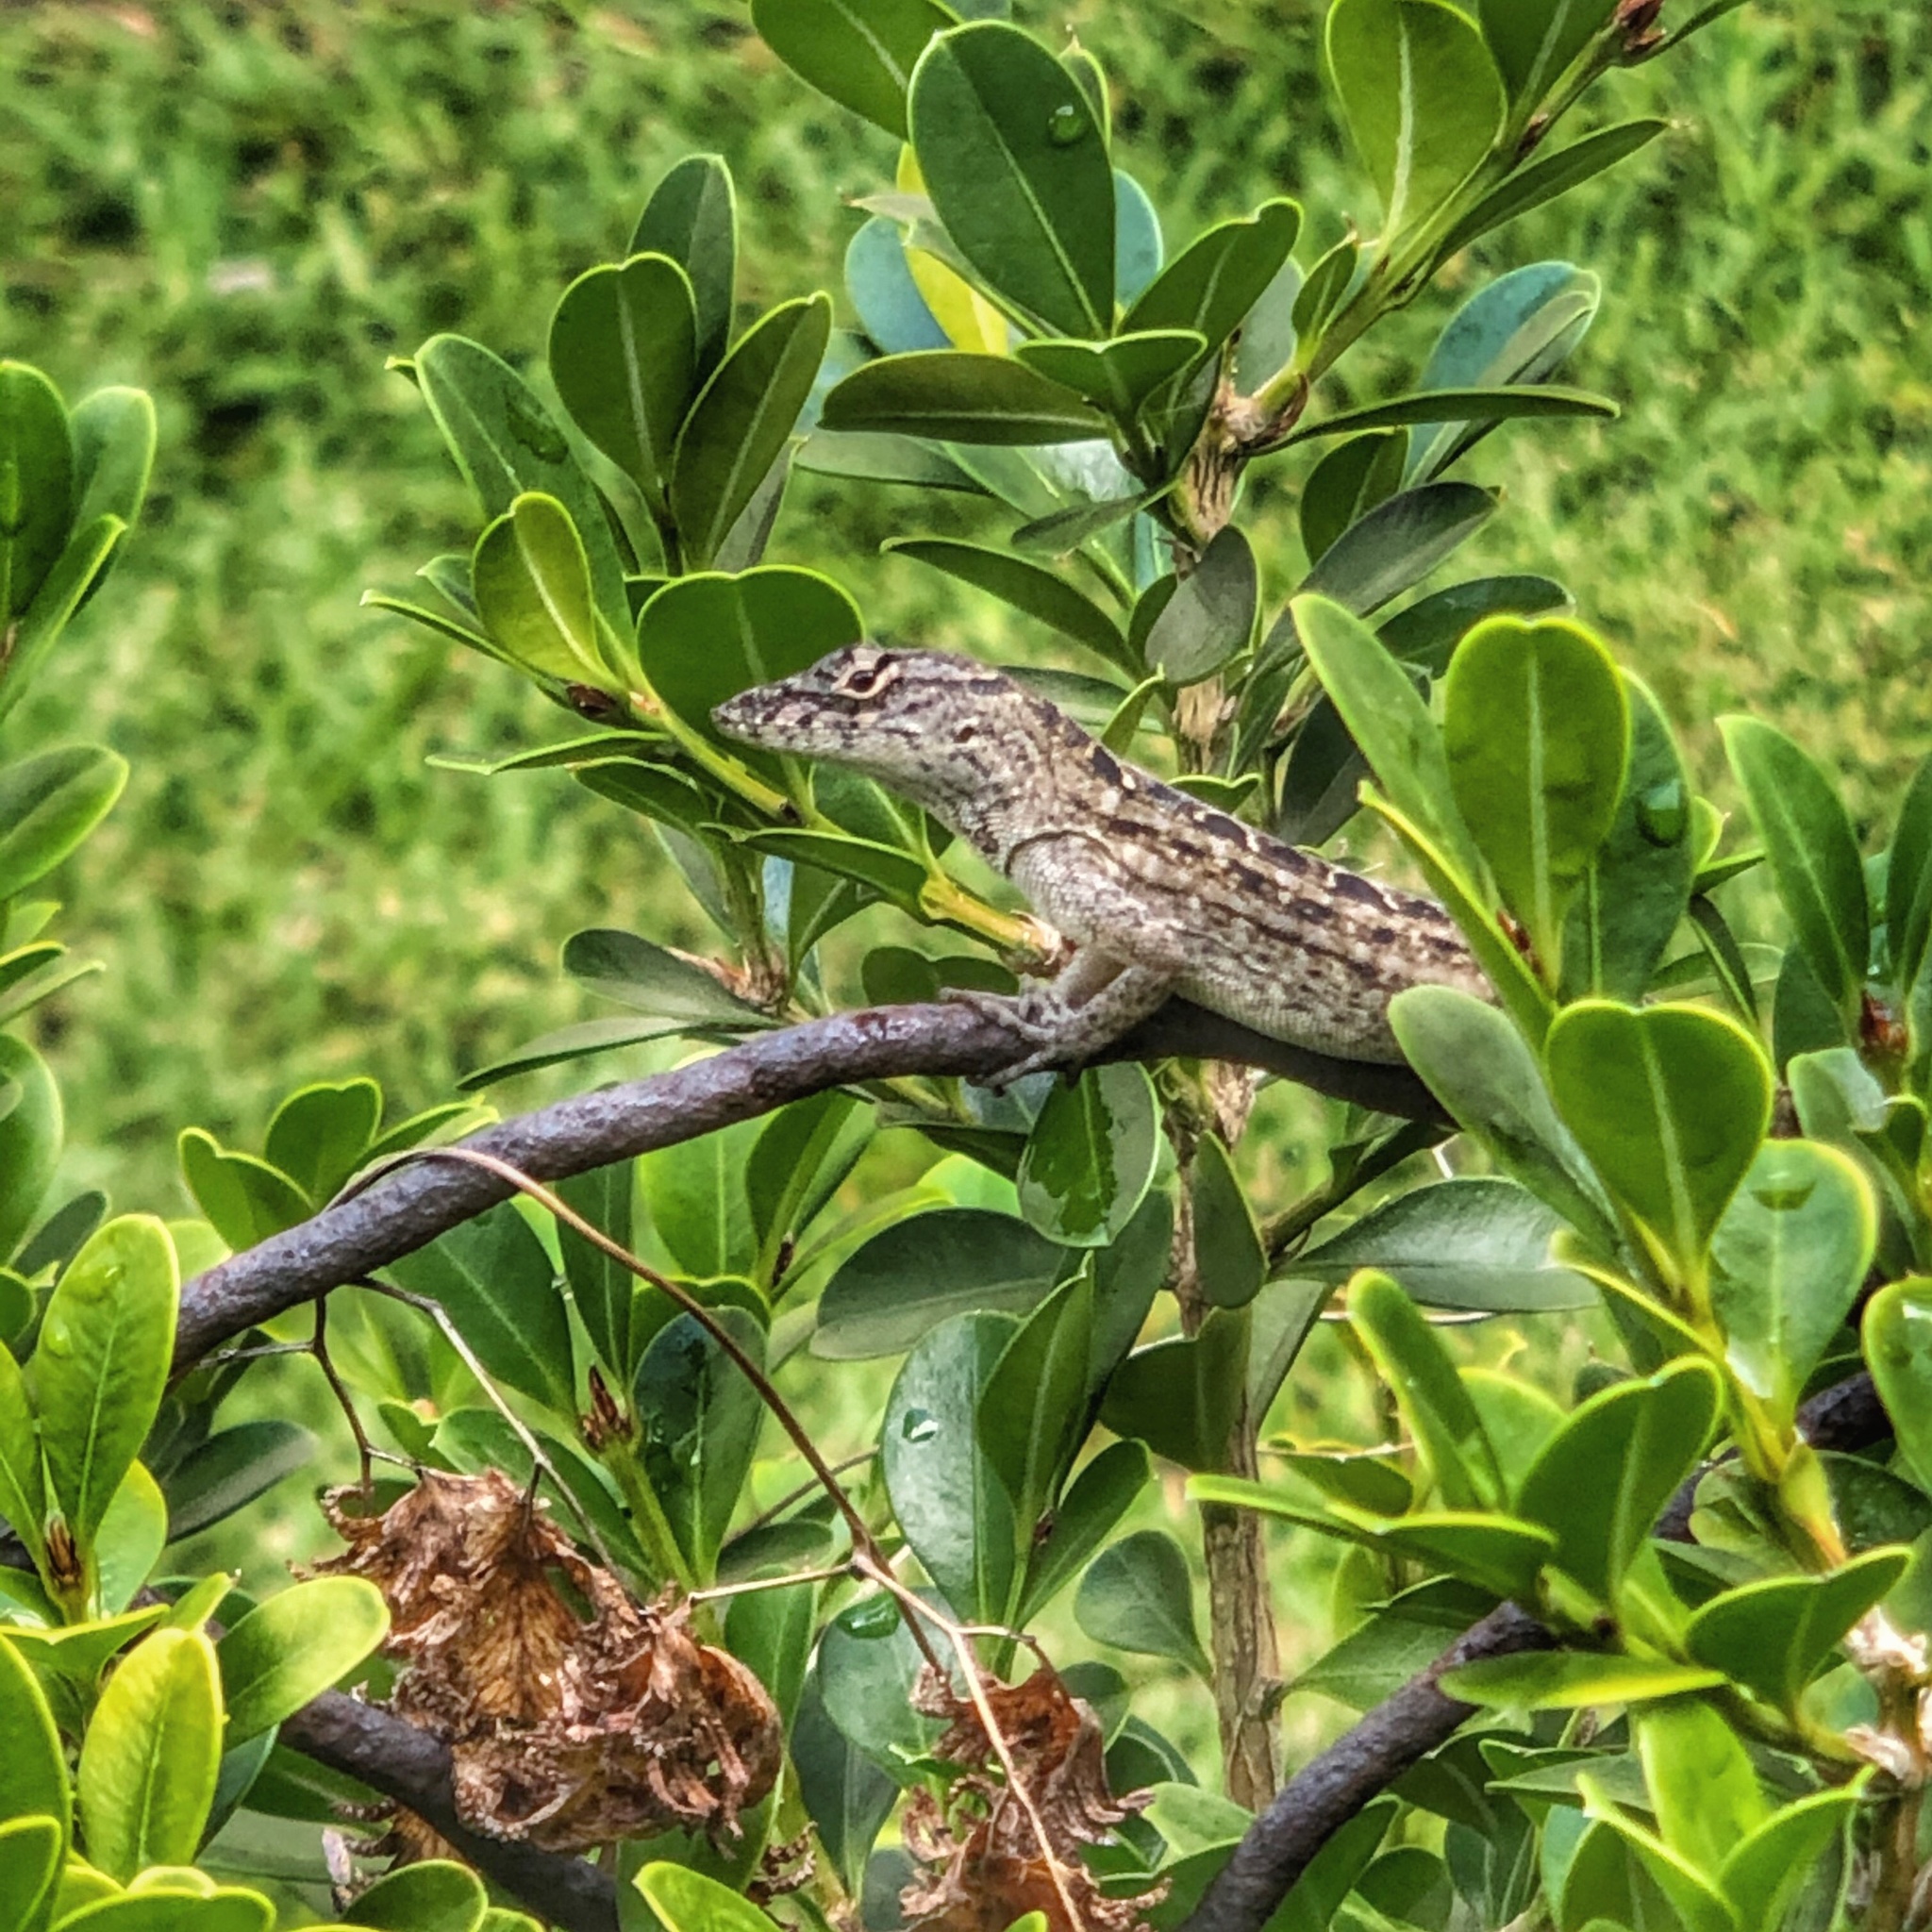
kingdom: Animalia
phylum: Chordata
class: Squamata
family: Dactyloidae
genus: Anolis
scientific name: Anolis sagrei
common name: Brown anole
